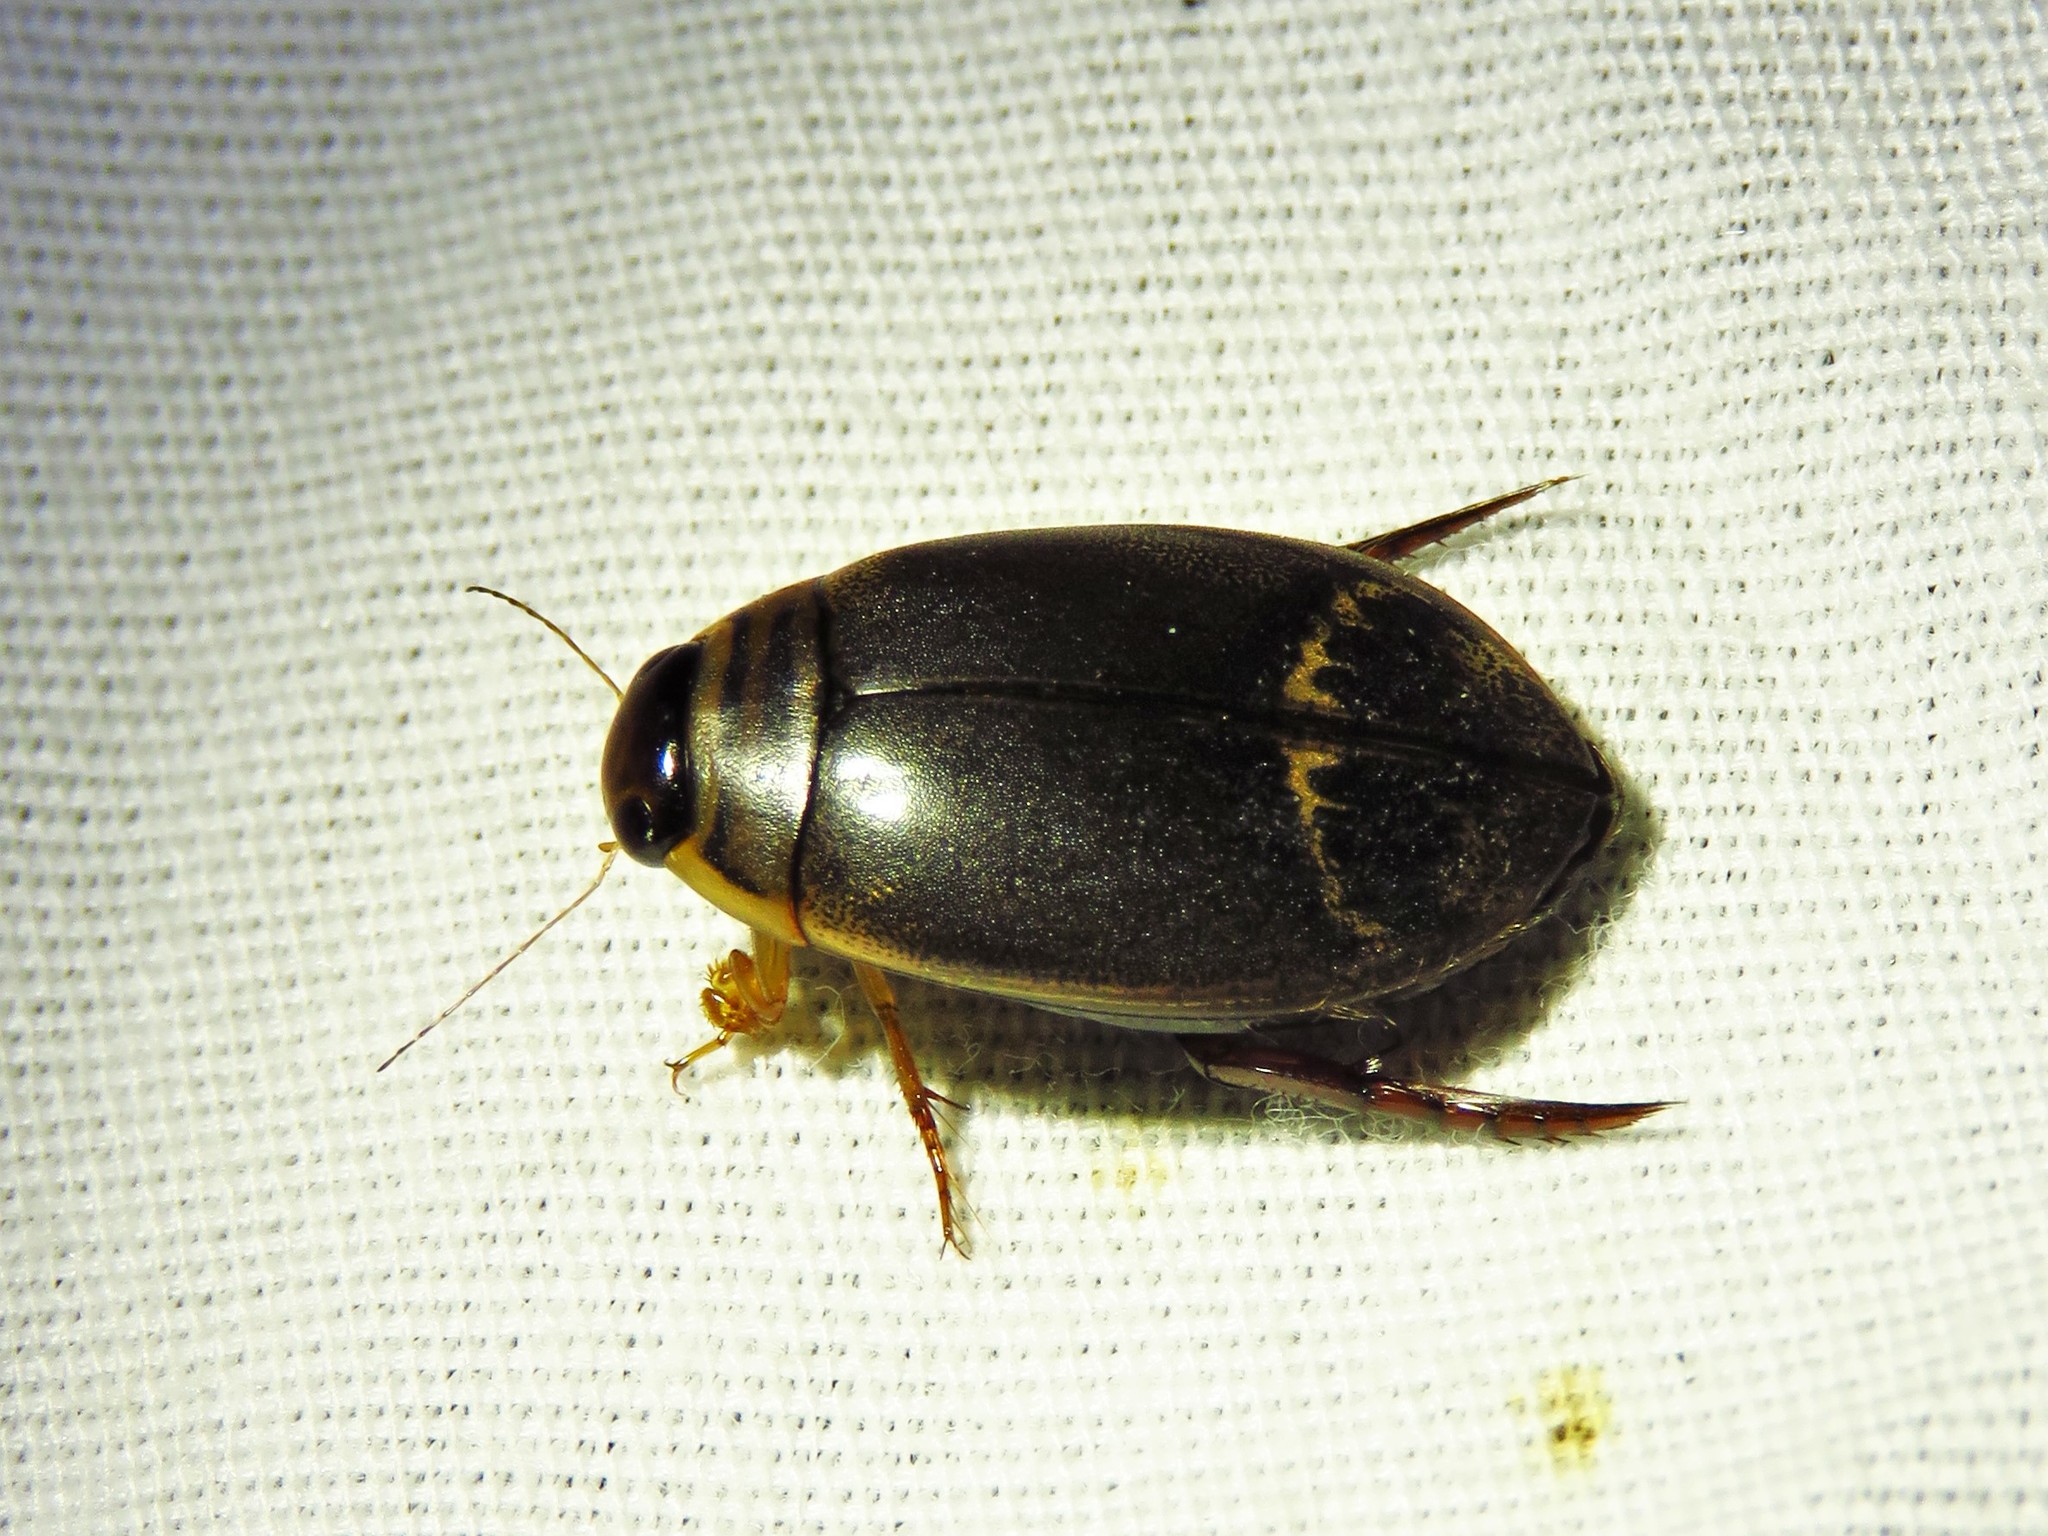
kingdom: Animalia
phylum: Arthropoda
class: Insecta
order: Coleoptera
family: Dytiscidae
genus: Acilius
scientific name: Acilius fraternus
